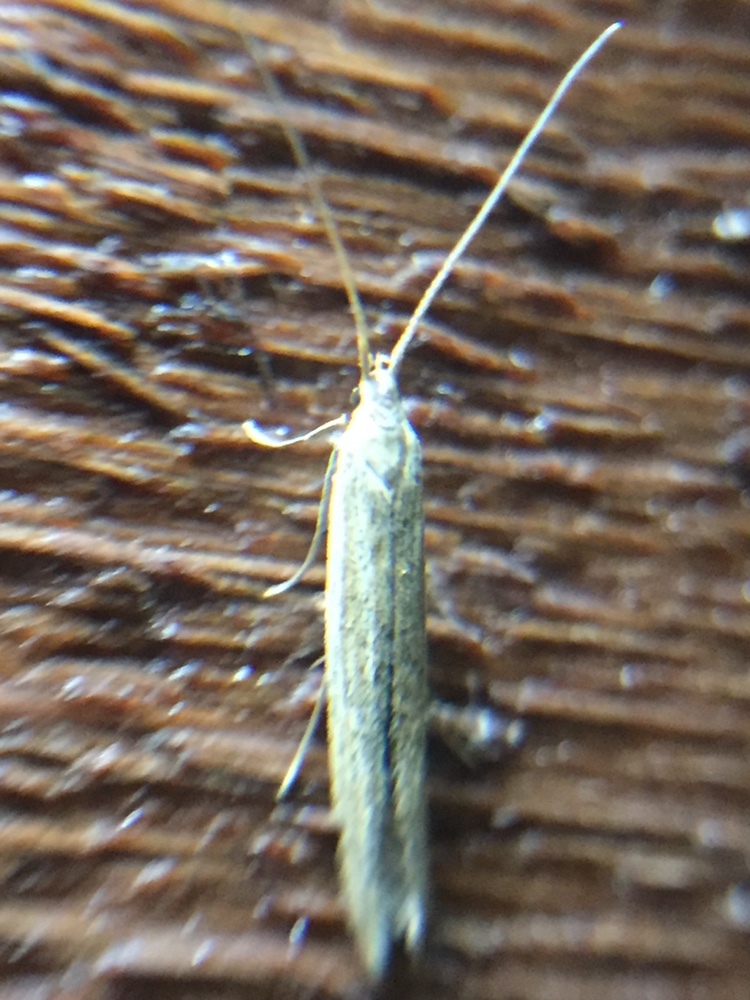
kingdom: Animalia
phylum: Arthropoda
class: Insecta
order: Lepidoptera
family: Coleophoridae
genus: Coleophora
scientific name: Coleophora versurella
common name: Pale orache case-bearer
